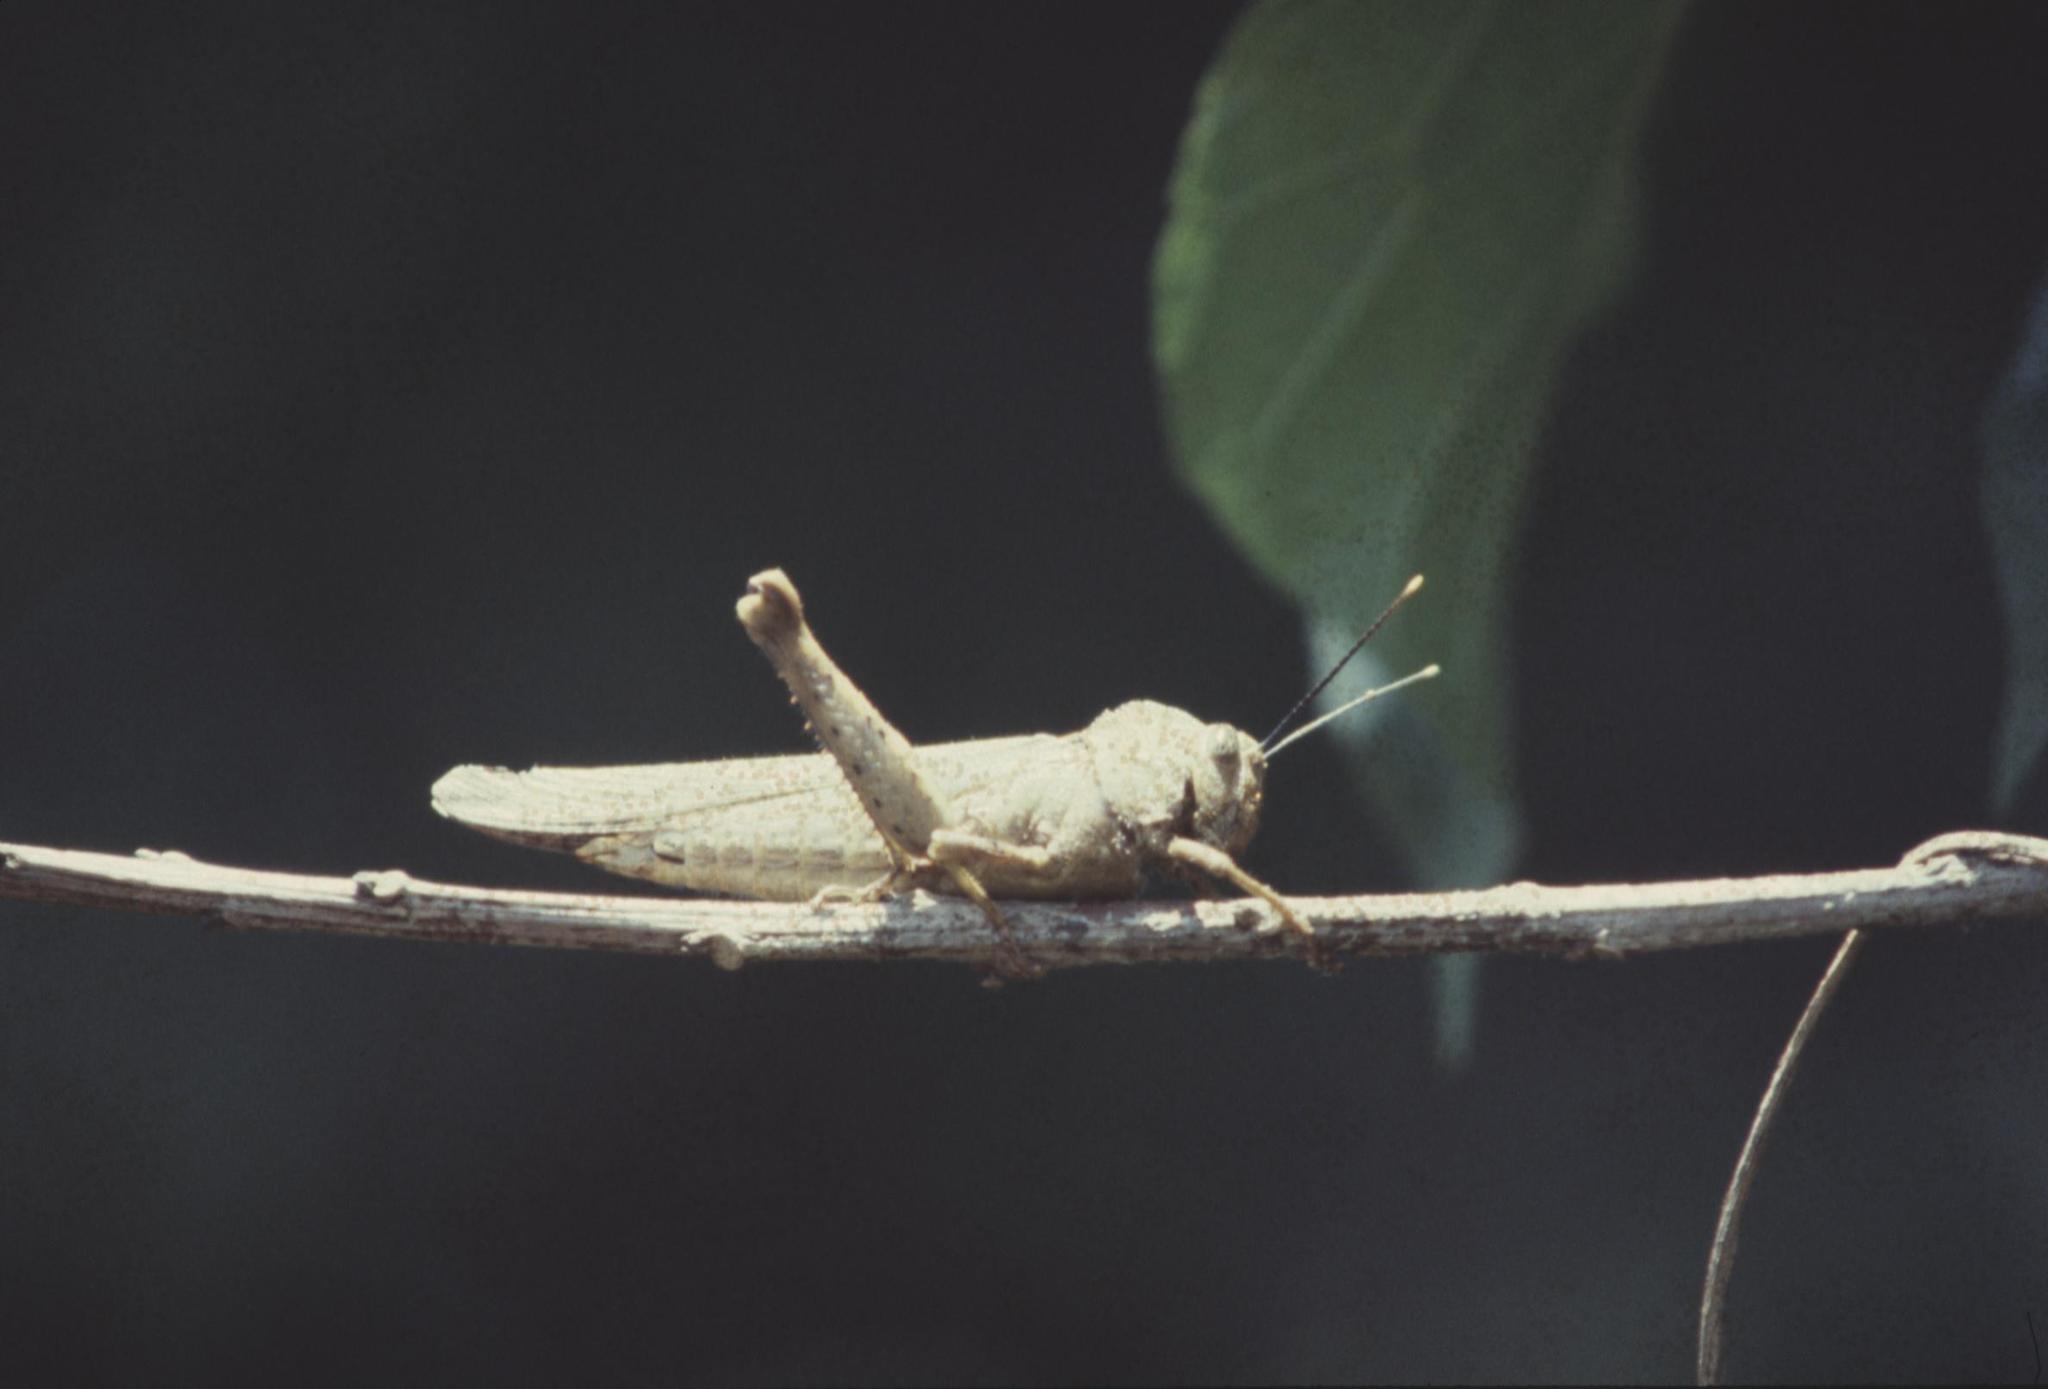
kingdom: Animalia
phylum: Arthropoda
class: Insecta
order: Orthoptera
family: Acrididae
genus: Abisares
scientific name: Abisares viridipenne
